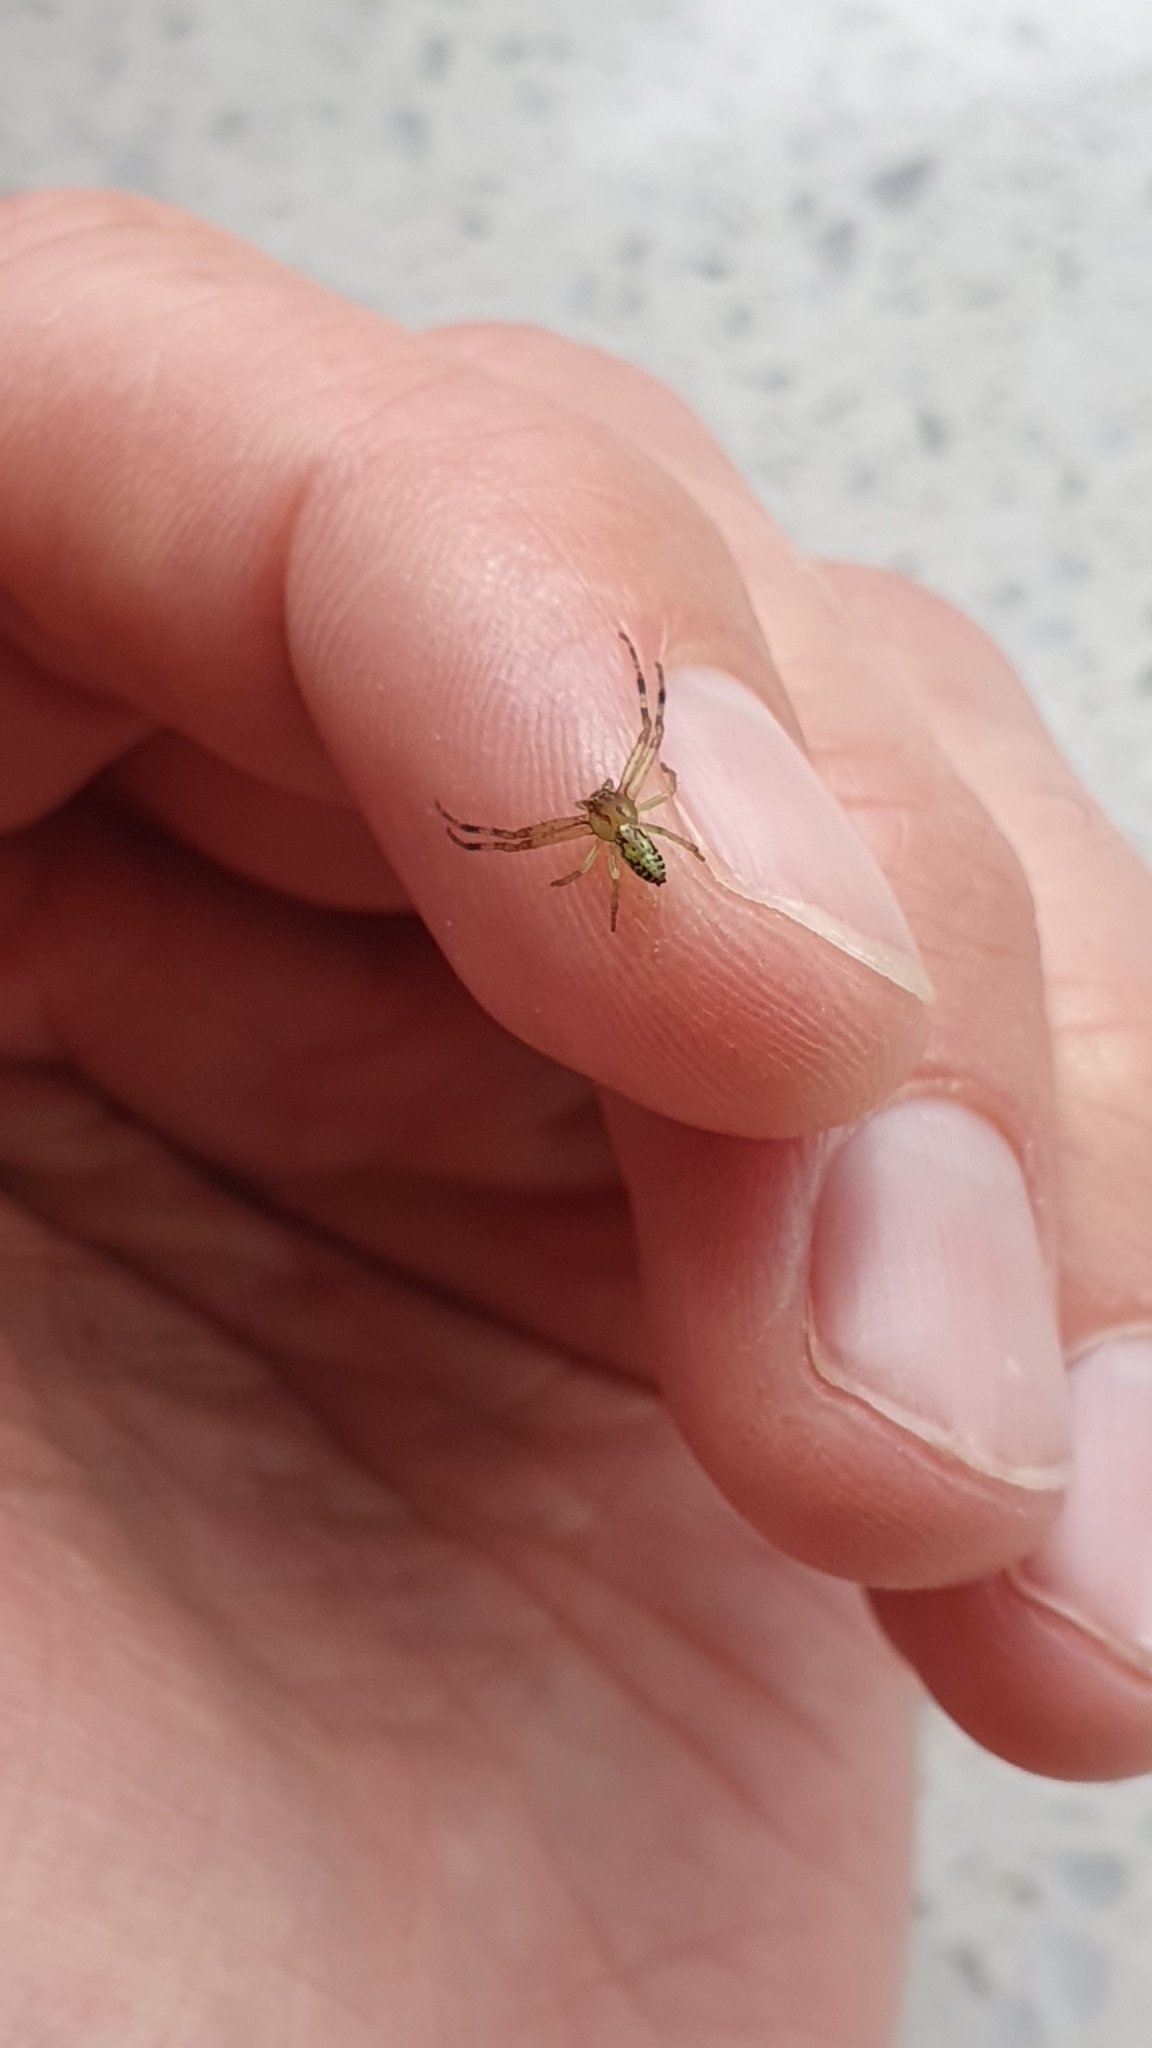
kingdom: Animalia
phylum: Arthropoda
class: Arachnida
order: Araneae
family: Thomisidae
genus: Diaea
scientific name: Diaea ambara
